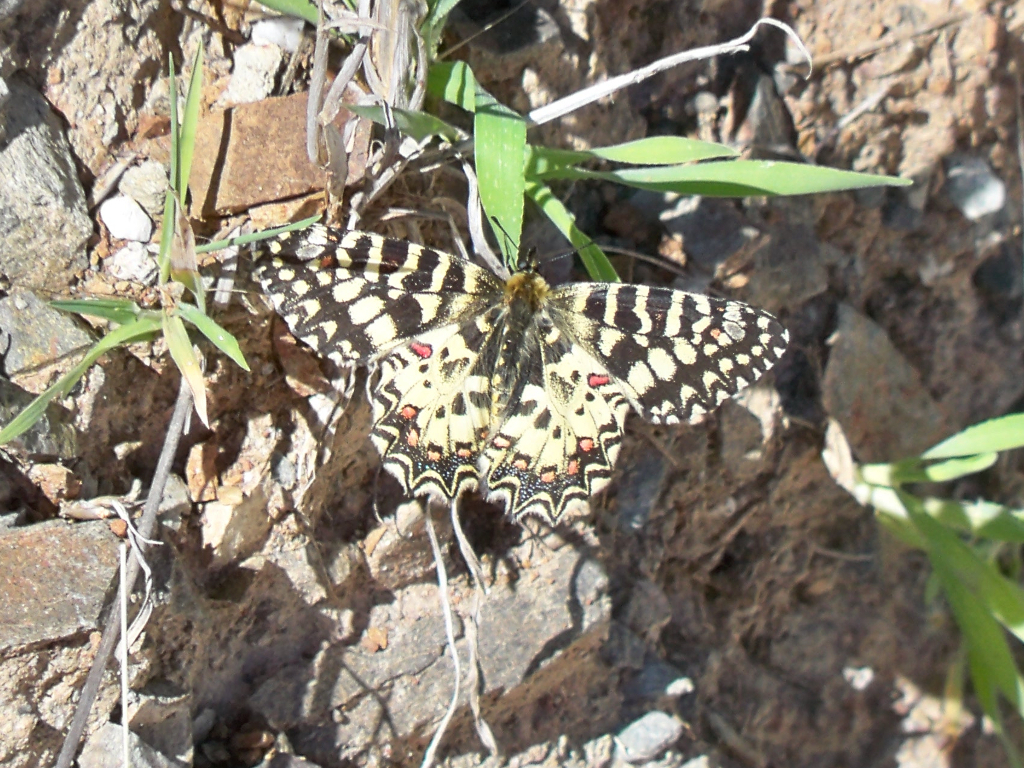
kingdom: Animalia
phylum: Arthropoda
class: Insecta
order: Lepidoptera
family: Papilionidae
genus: Zerynthia
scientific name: Zerynthia rumina
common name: Spanish festoon
